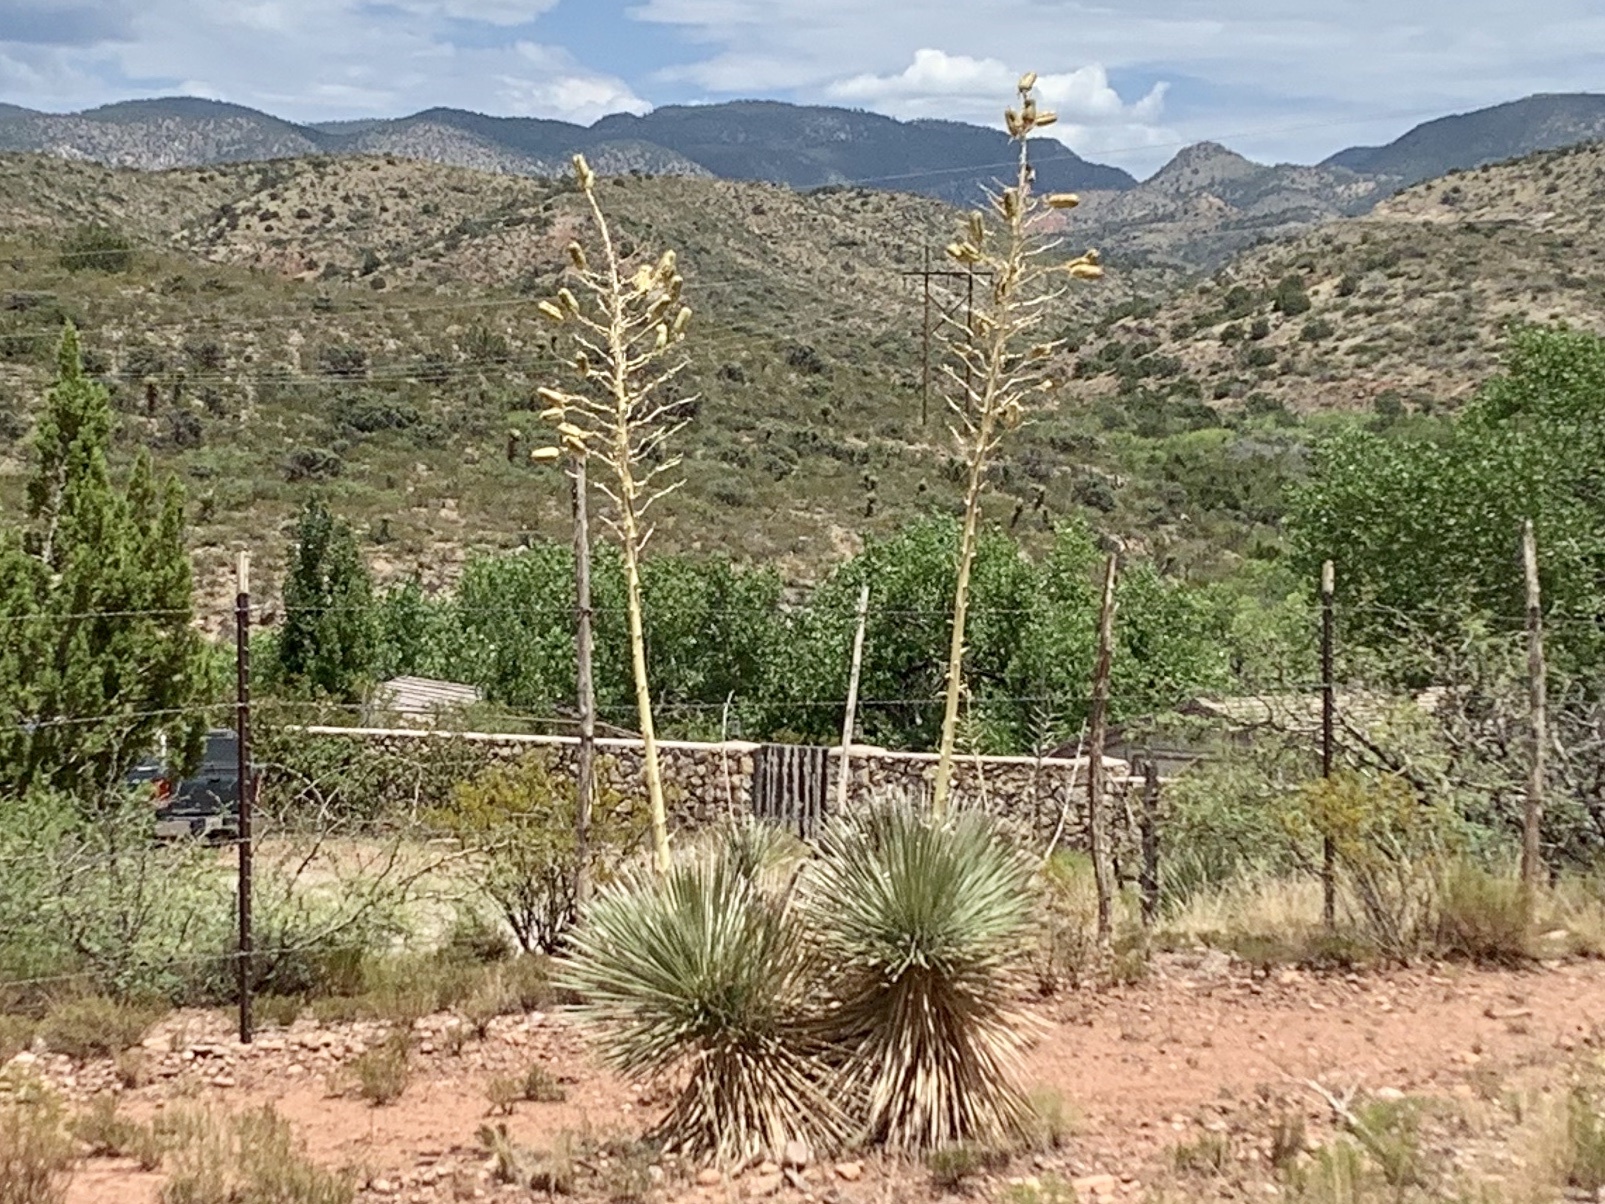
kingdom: Plantae
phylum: Tracheophyta
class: Liliopsida
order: Asparagales
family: Asparagaceae
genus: Yucca
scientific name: Yucca elata
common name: Palmella
